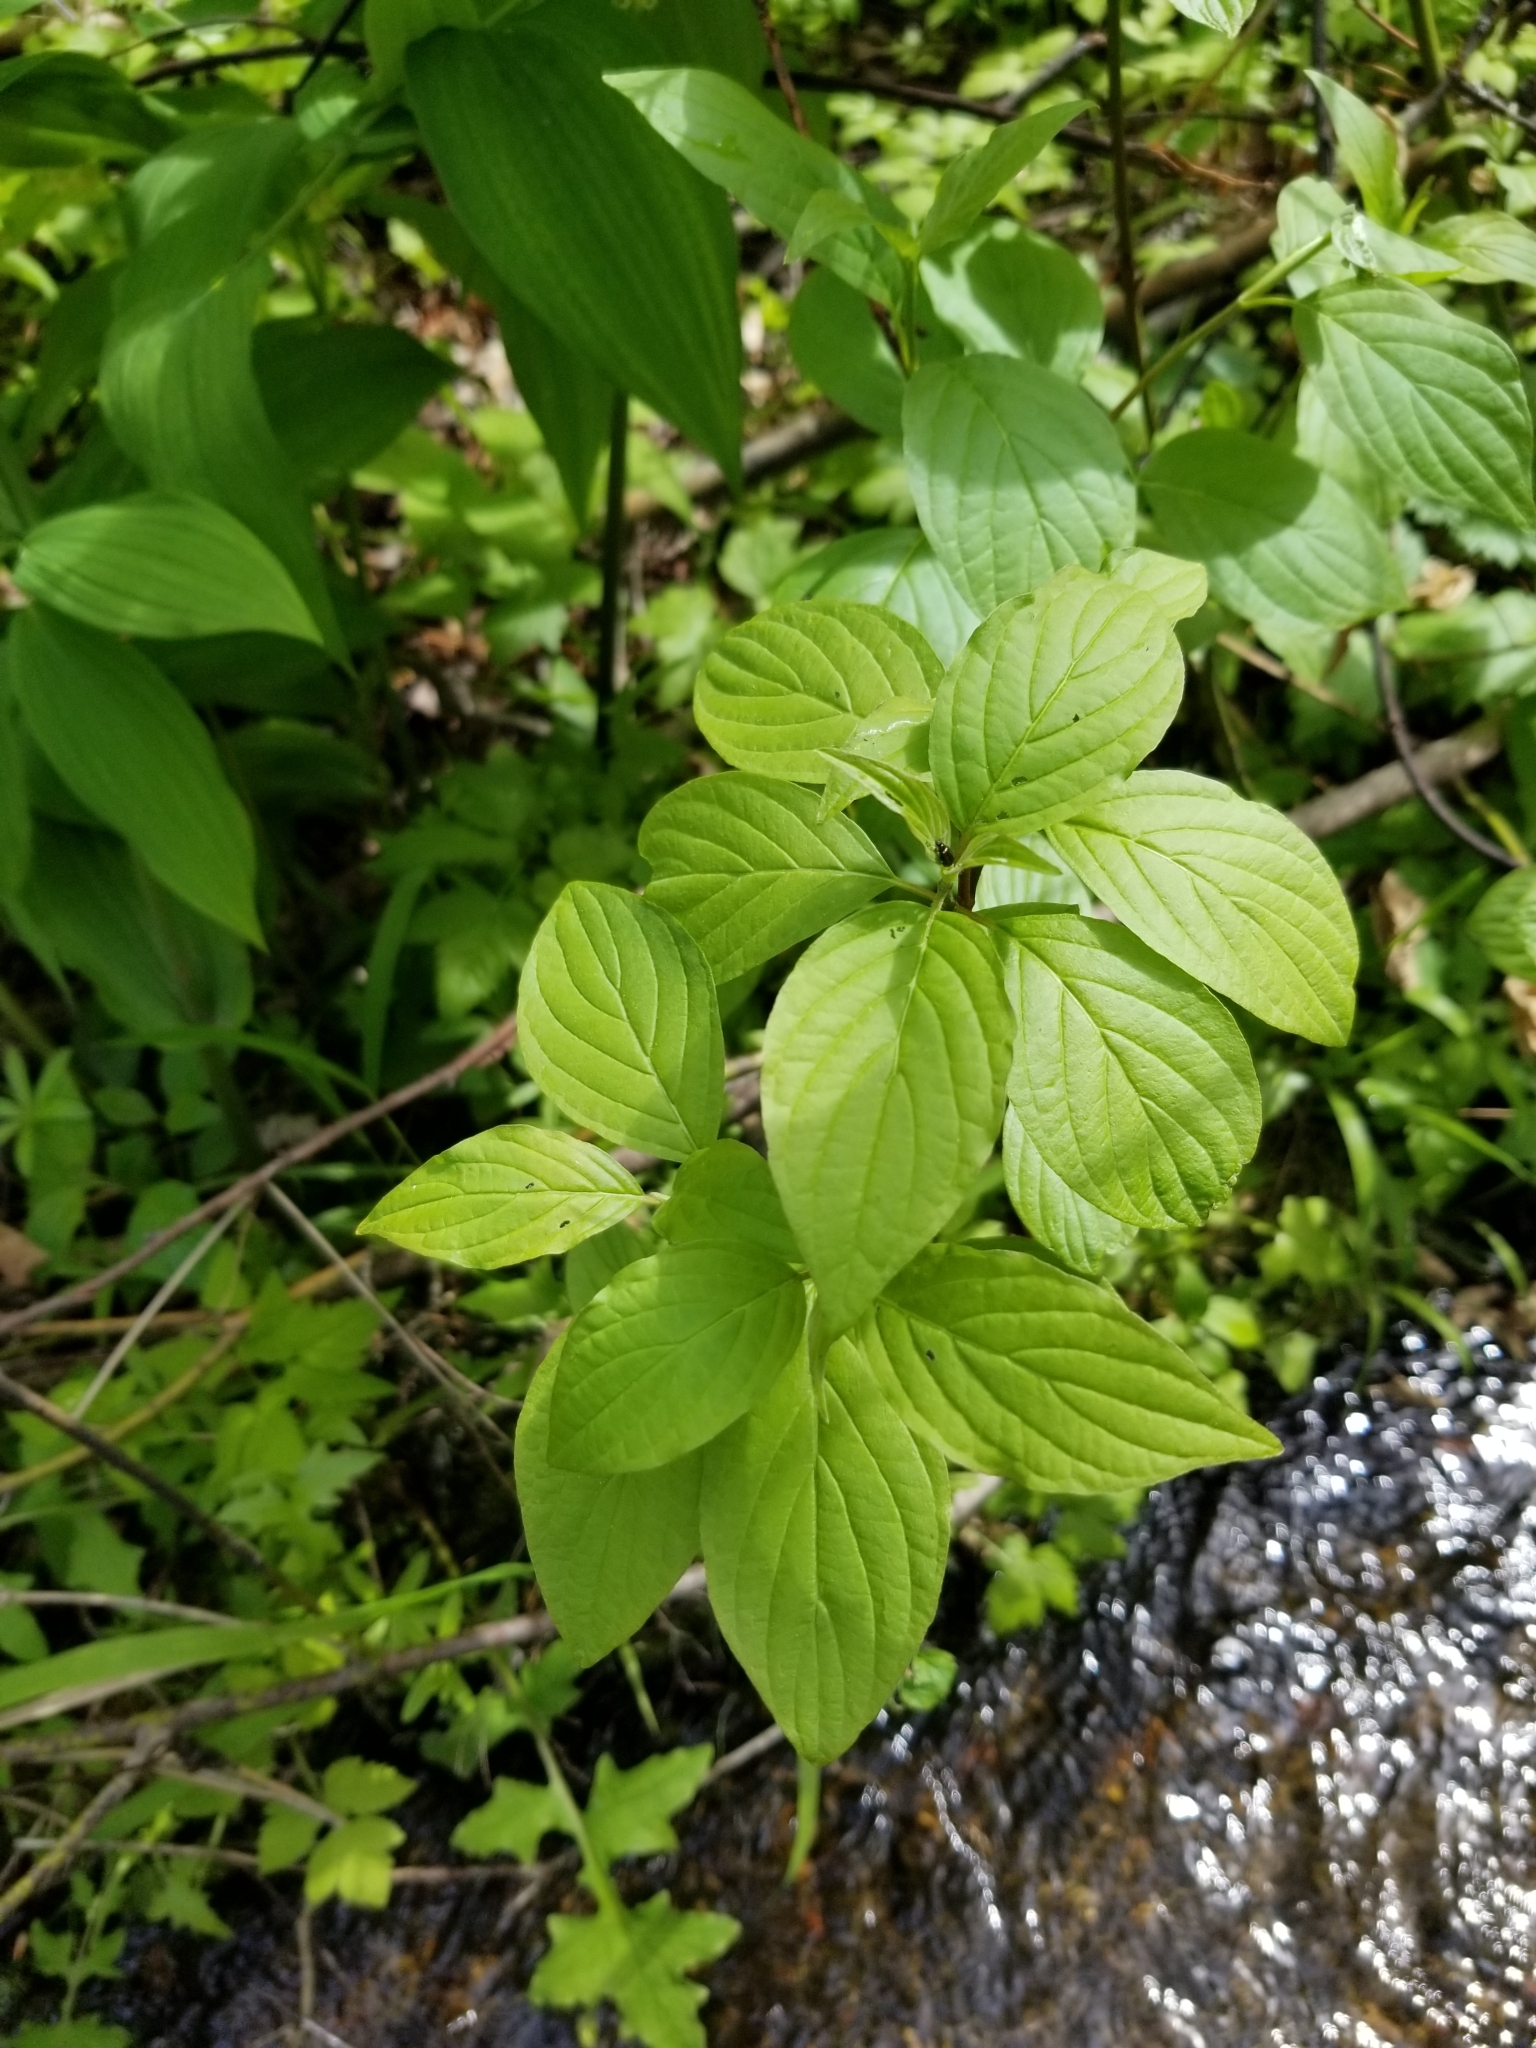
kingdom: Plantae
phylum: Tracheophyta
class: Magnoliopsida
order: Cornales
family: Cornaceae
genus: Cornus
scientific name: Cornus sericea
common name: Red-osier dogwood
